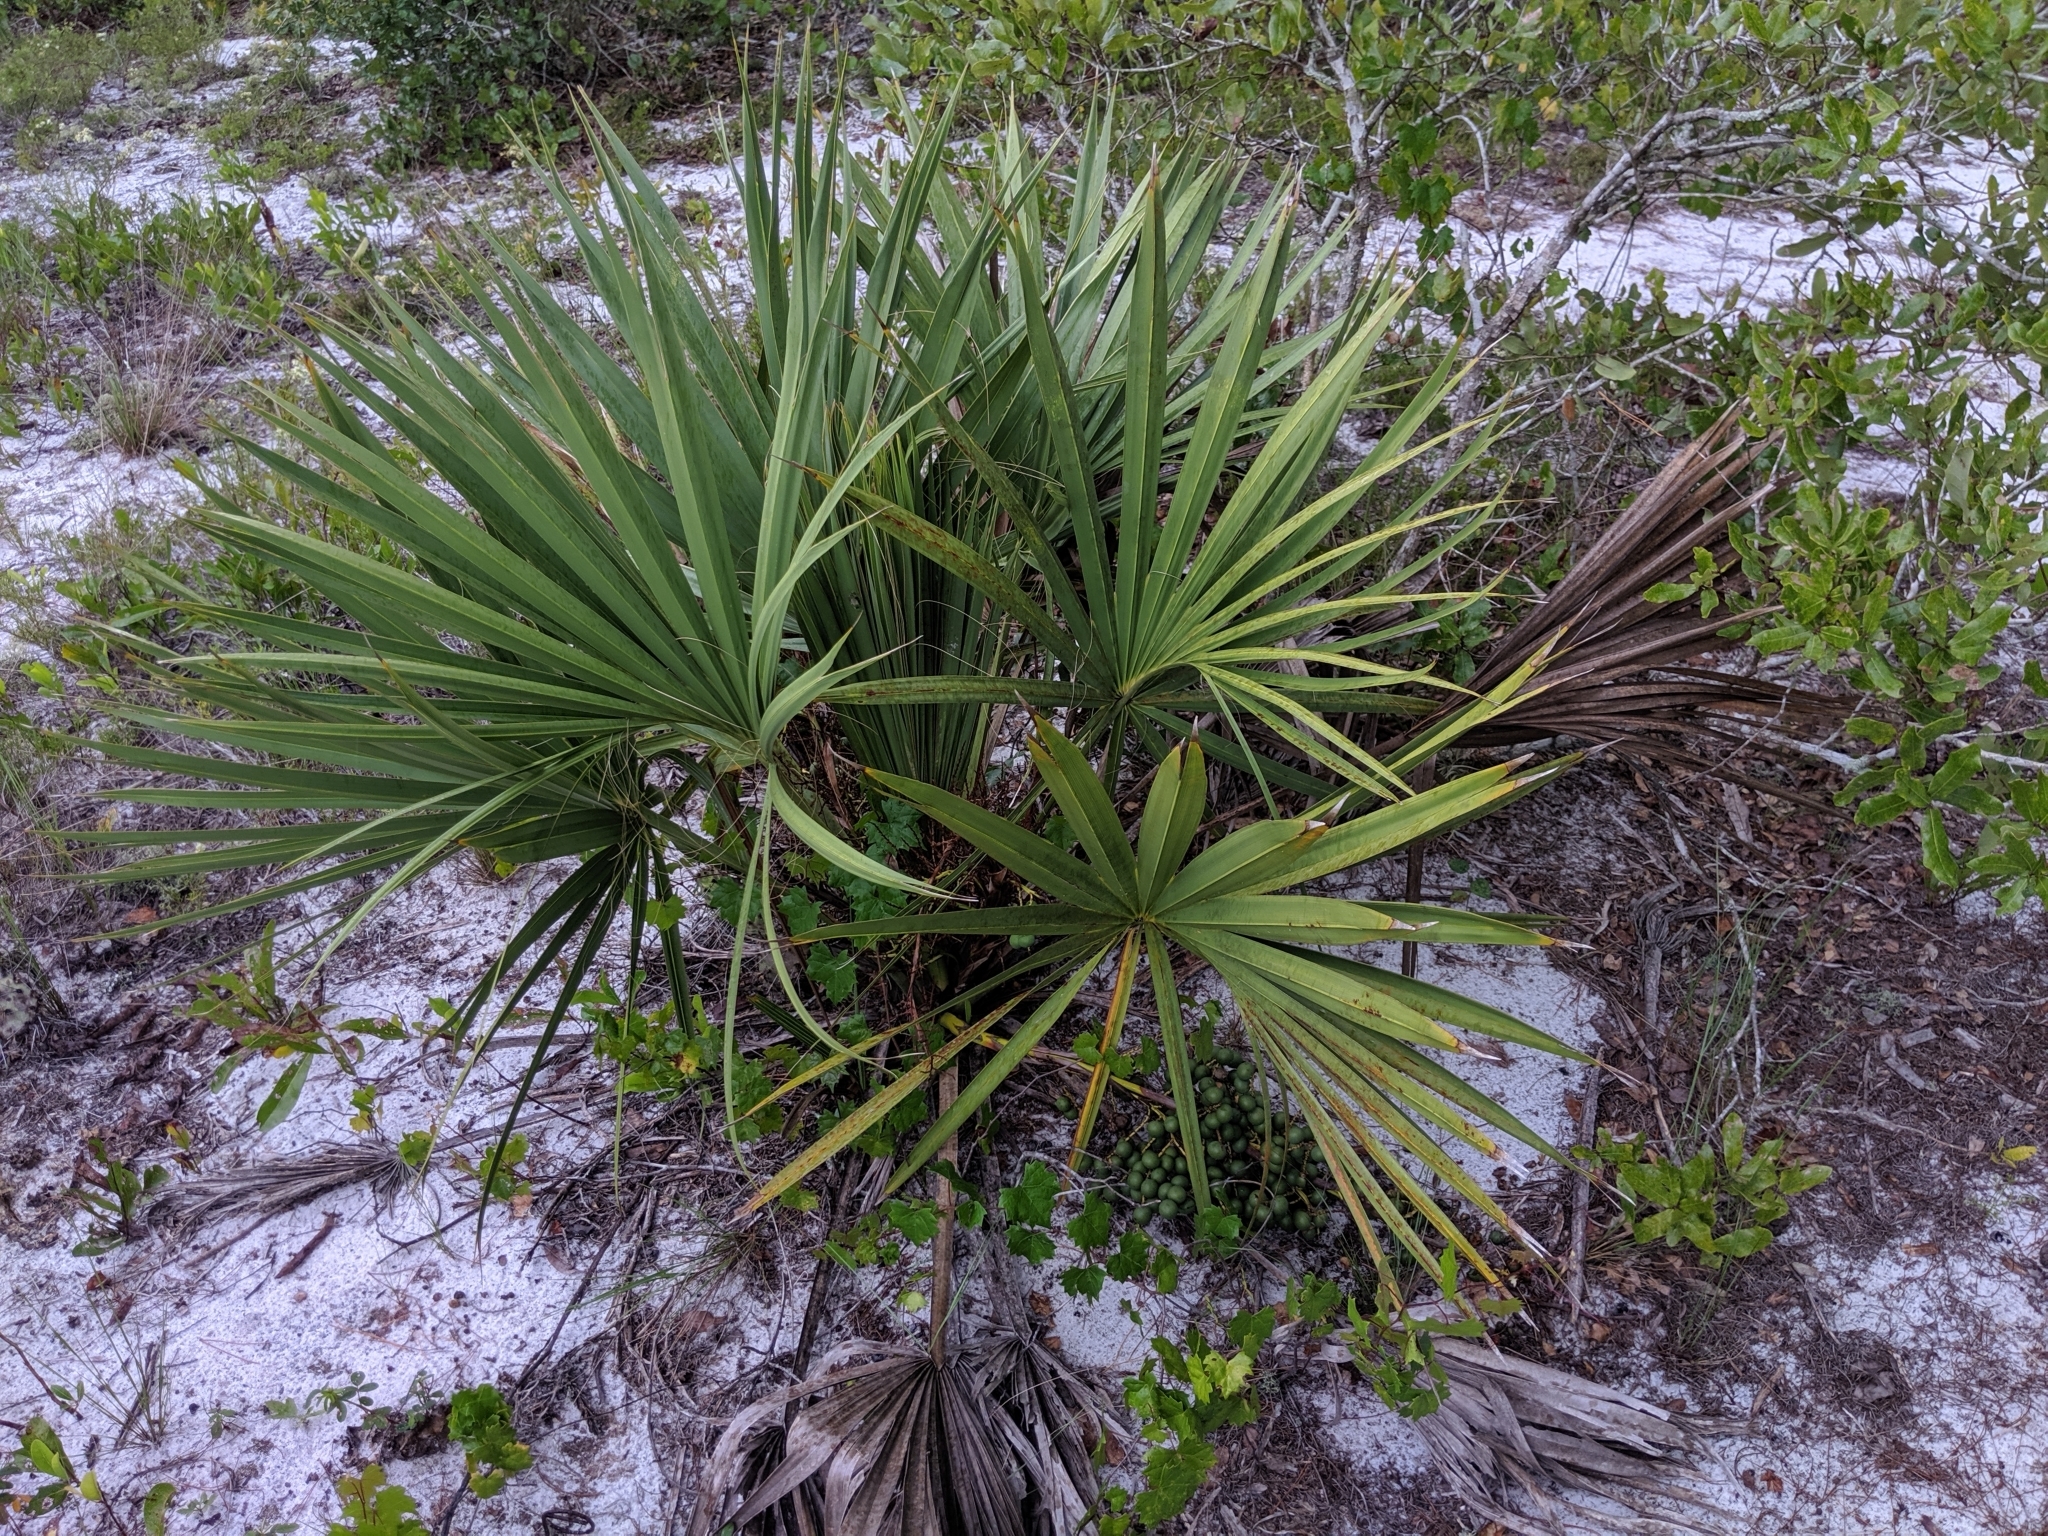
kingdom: Plantae
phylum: Tracheophyta
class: Liliopsida
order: Arecales
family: Arecaceae
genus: Sabal
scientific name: Sabal etonia
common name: Dwarf palmetto
